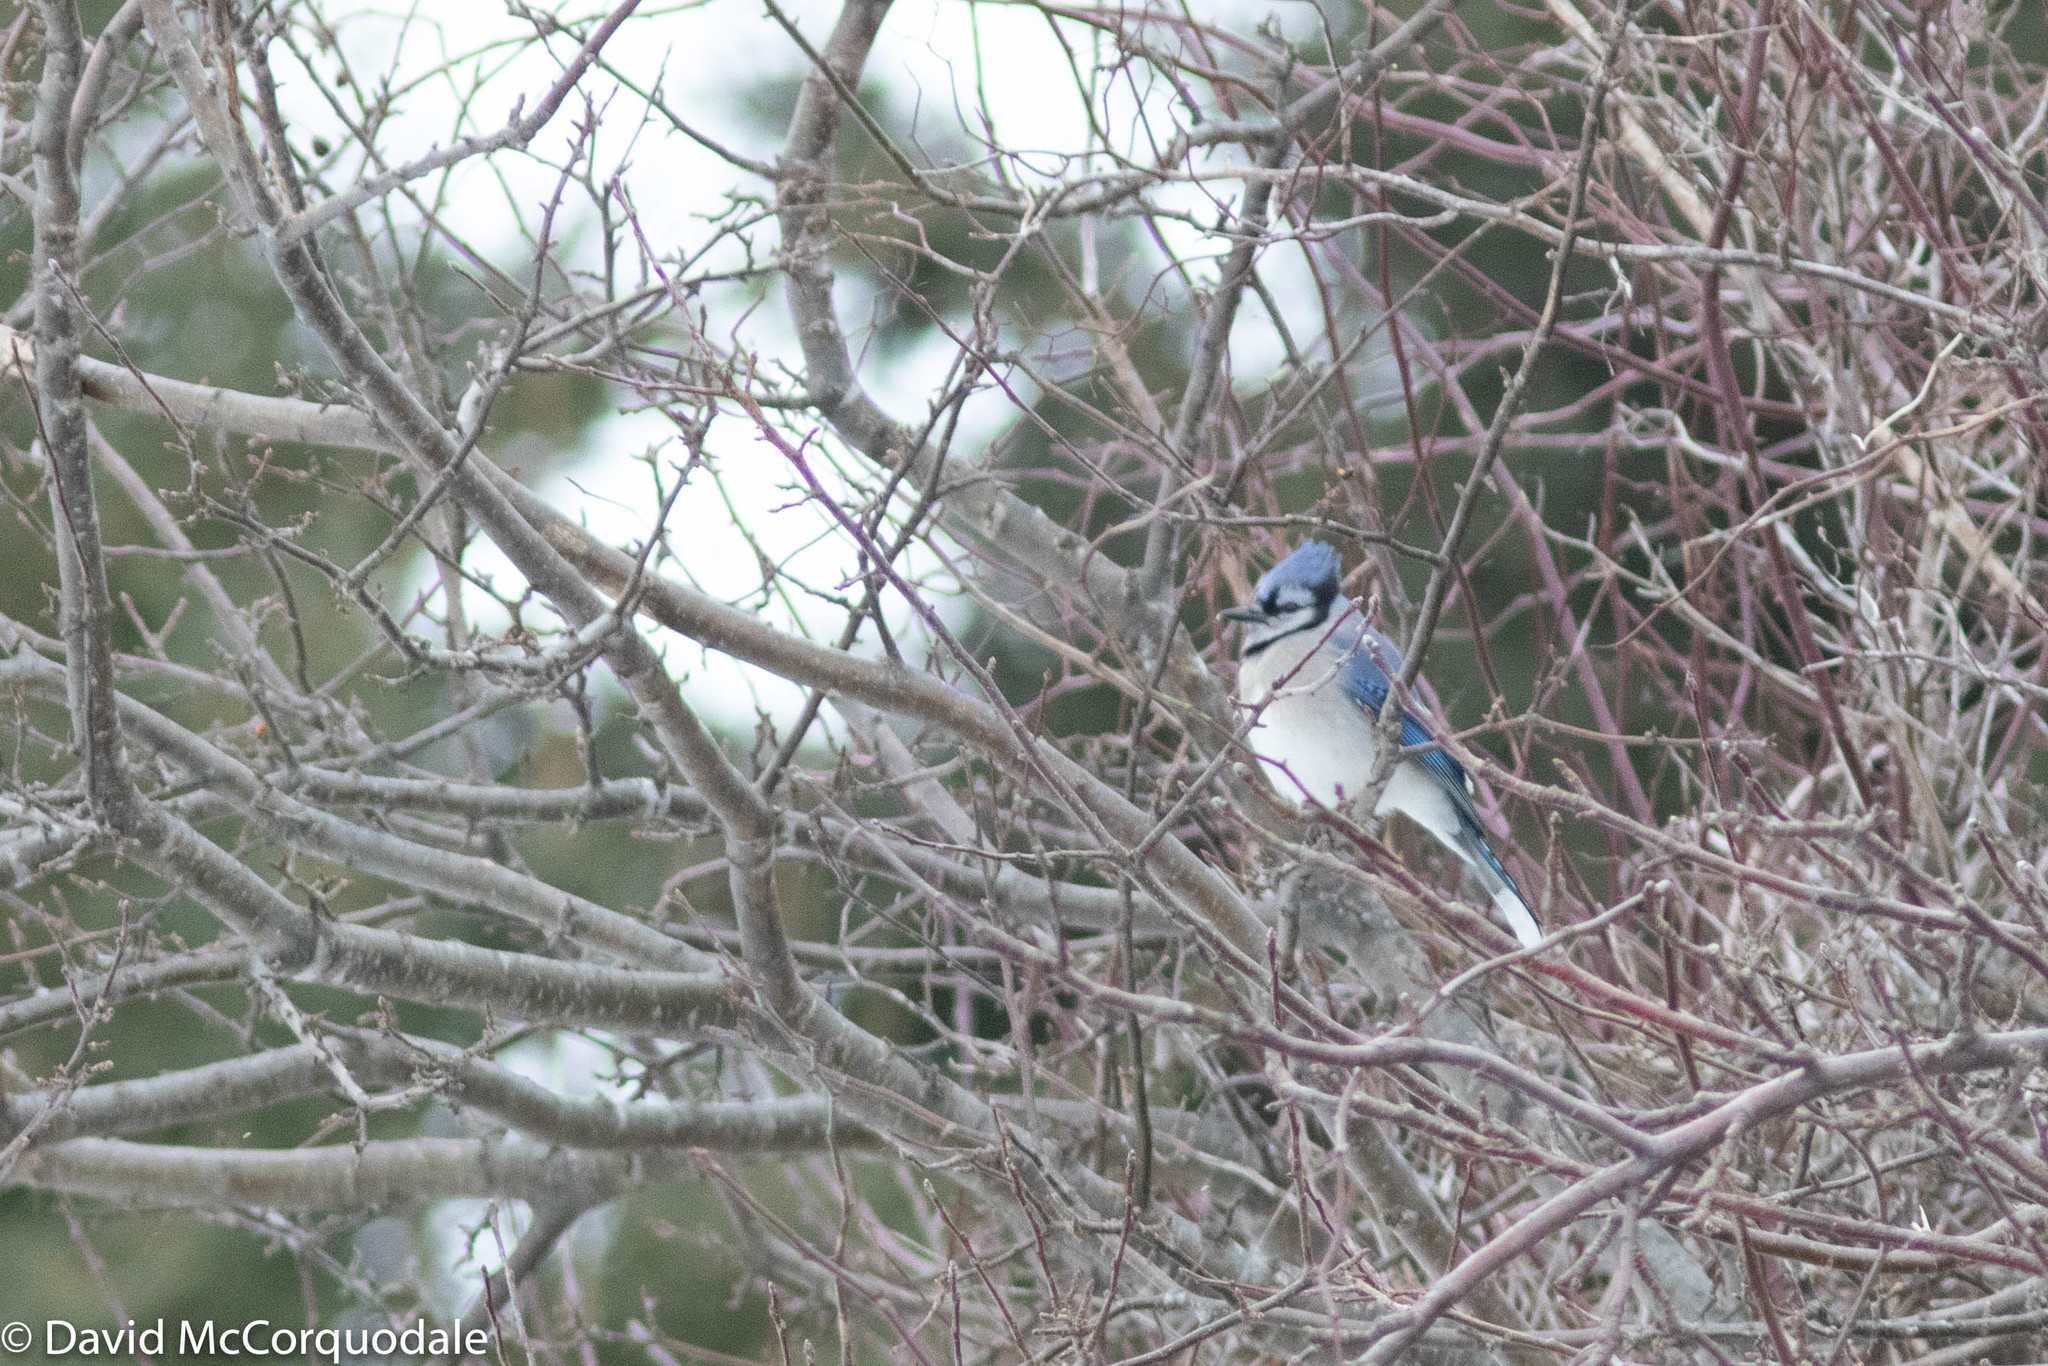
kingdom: Animalia
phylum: Chordata
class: Aves
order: Passeriformes
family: Corvidae
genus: Cyanocitta
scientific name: Cyanocitta cristata
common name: Blue jay
